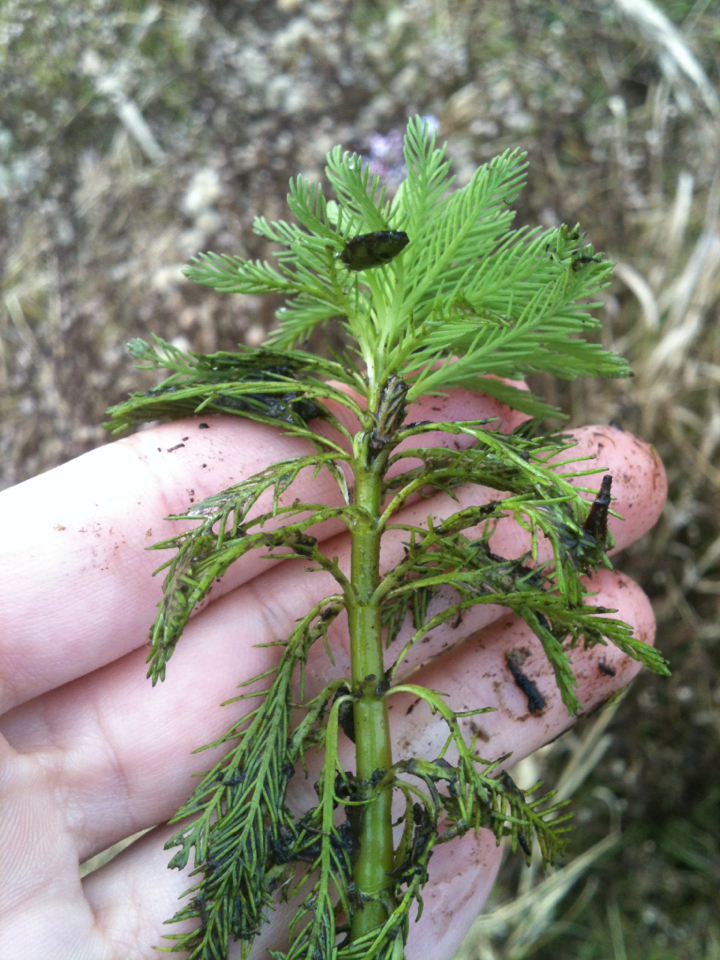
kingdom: Plantae
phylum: Tracheophyta
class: Magnoliopsida
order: Saxifragales
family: Haloragaceae
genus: Myriophyllum
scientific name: Myriophyllum aquaticum
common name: Parrot's feather
